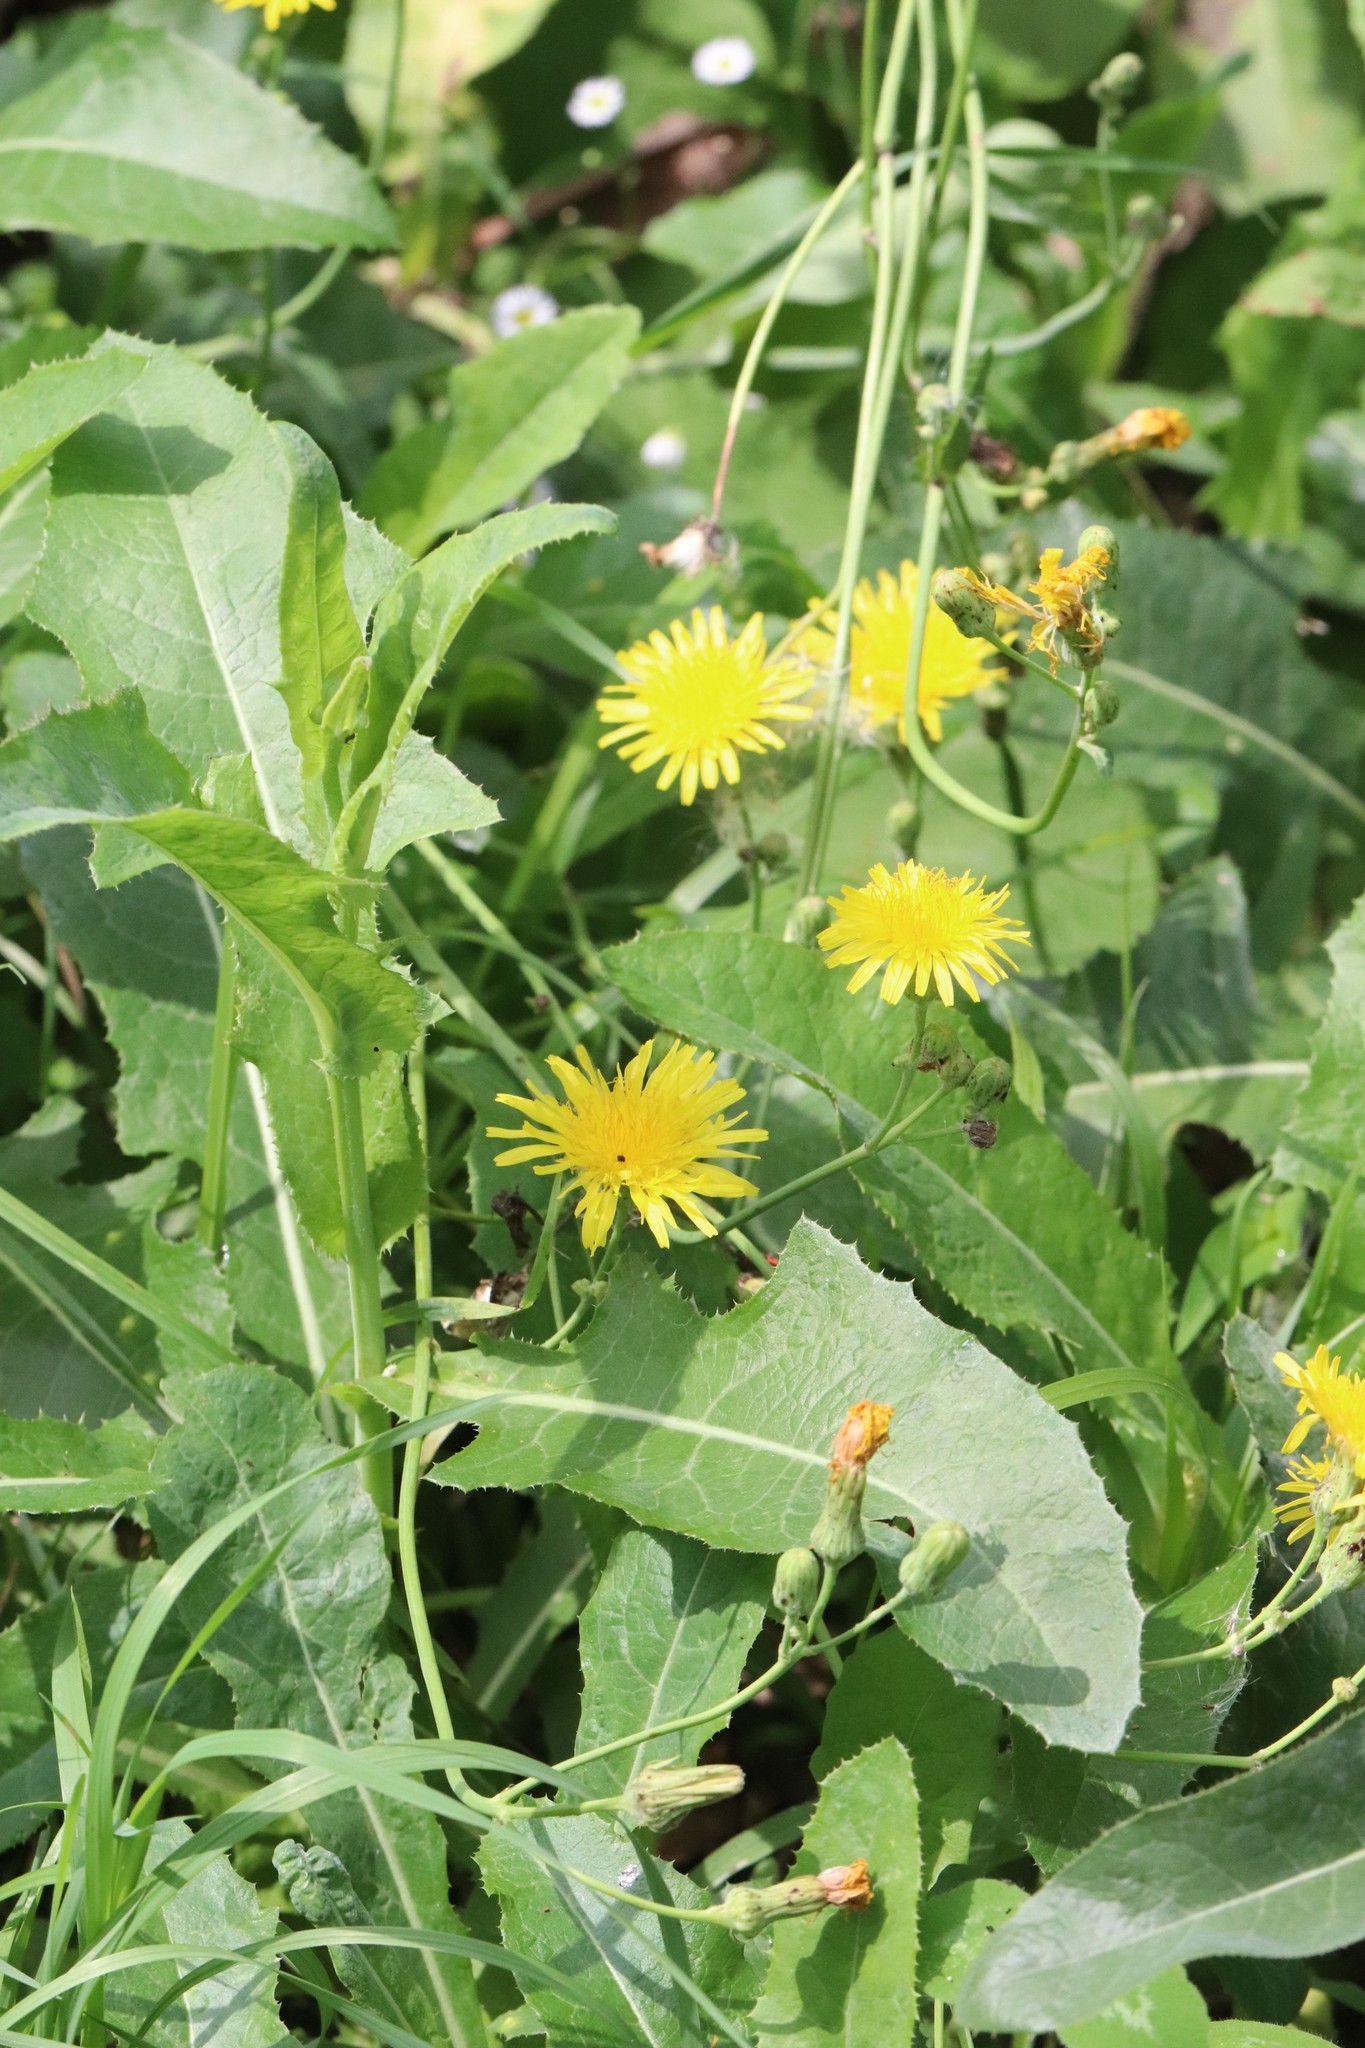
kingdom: Plantae
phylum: Tracheophyta
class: Magnoliopsida
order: Asterales
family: Asteraceae
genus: Sonchus
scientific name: Sonchus arvensis
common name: Perennial sow-thistle
